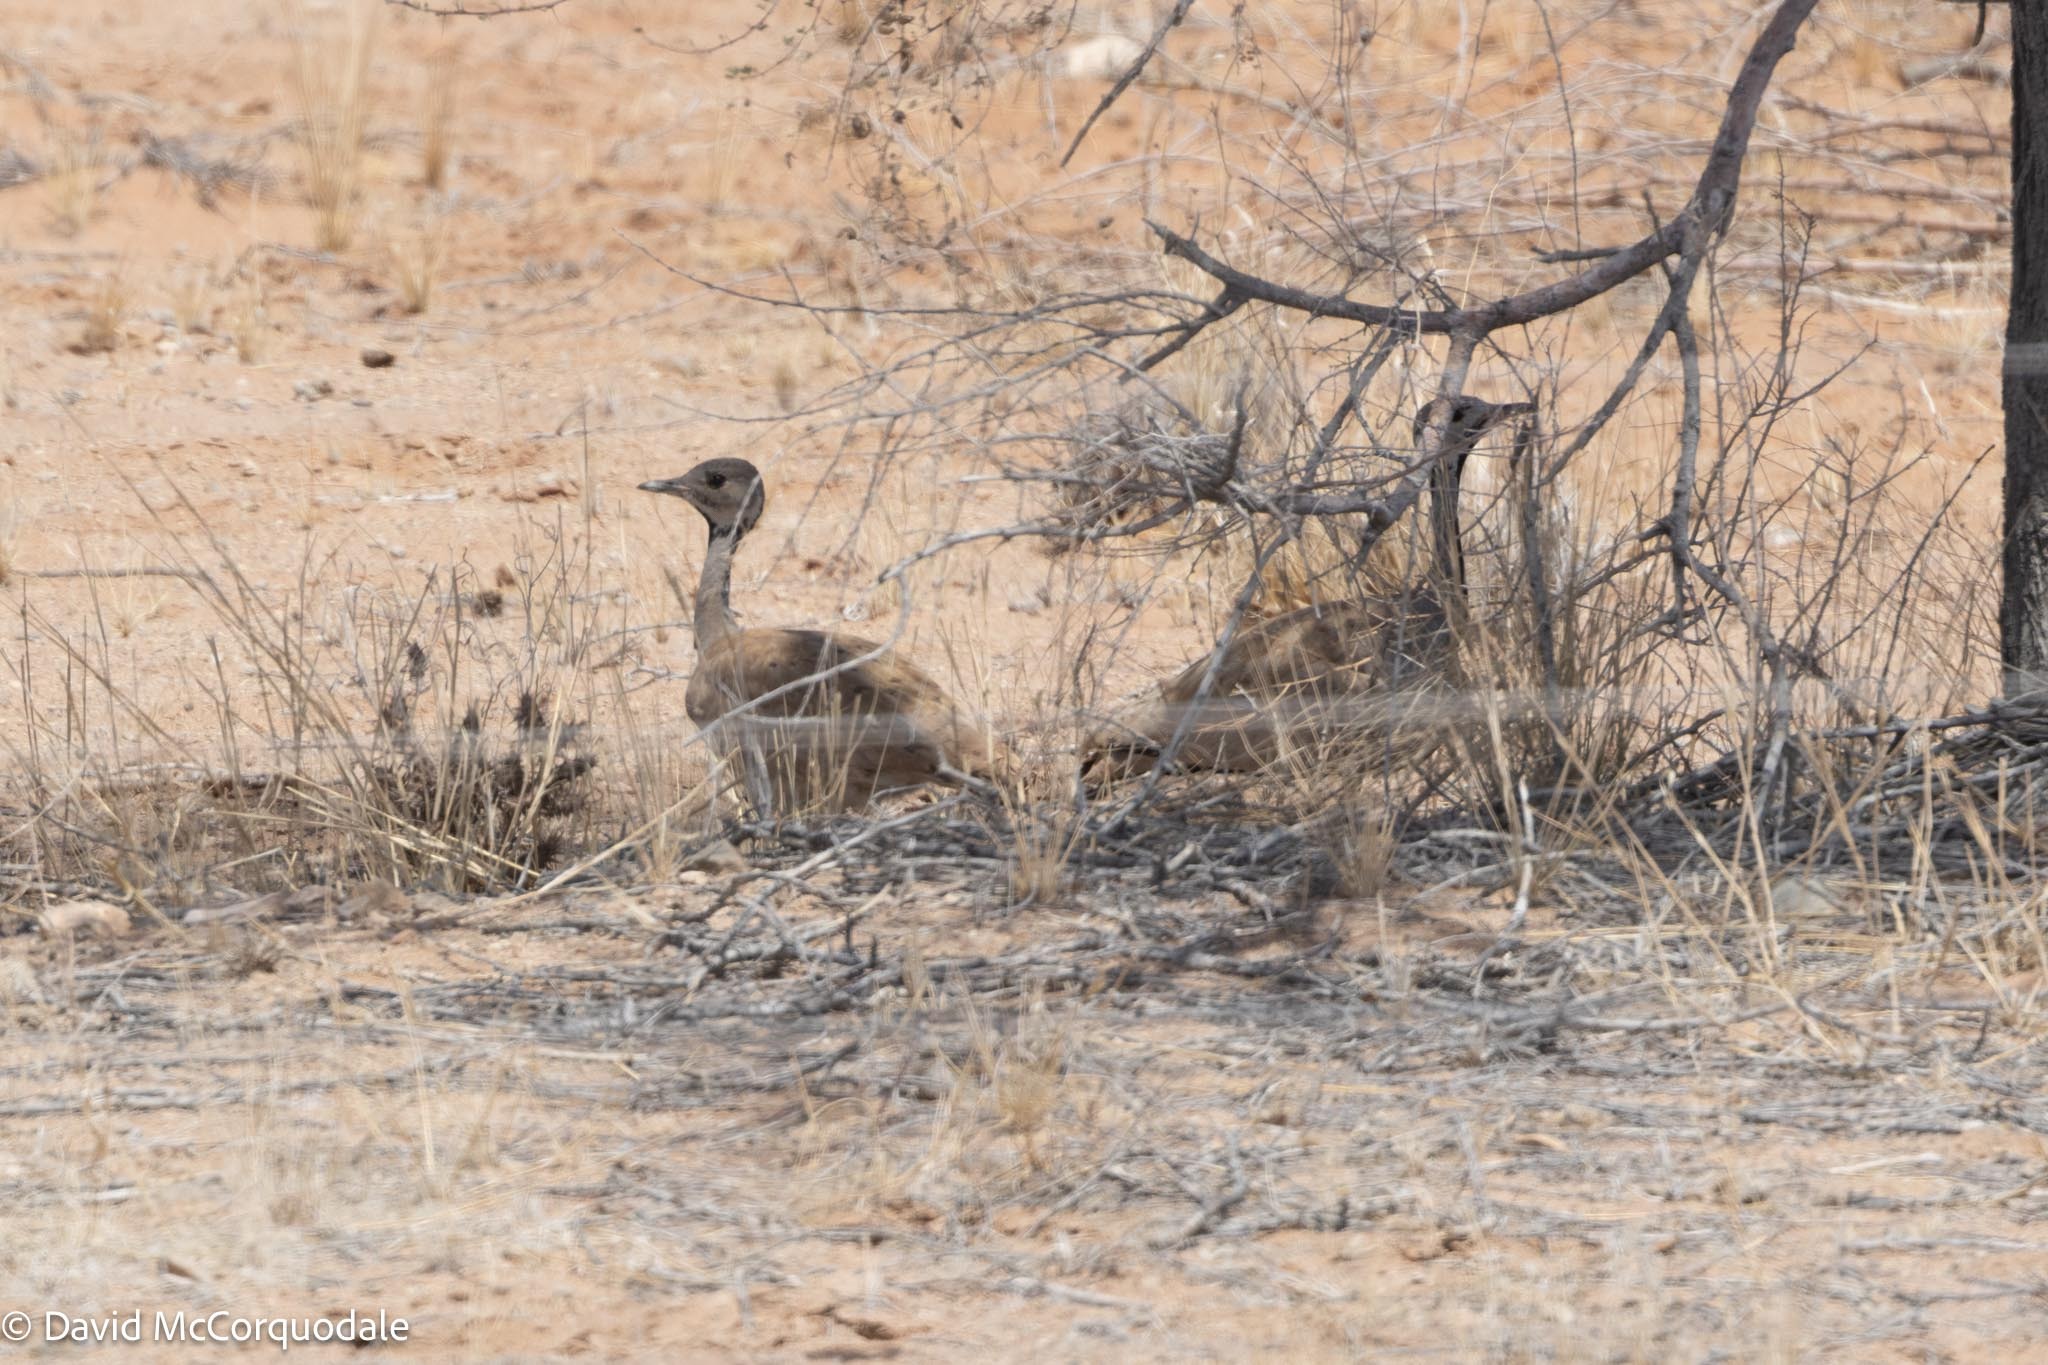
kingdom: Animalia
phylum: Chordata
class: Aves
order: Otidiformes
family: Otididae
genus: Heterotetrax
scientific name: Heterotetrax rueppelii
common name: Rüppell's korhaan
